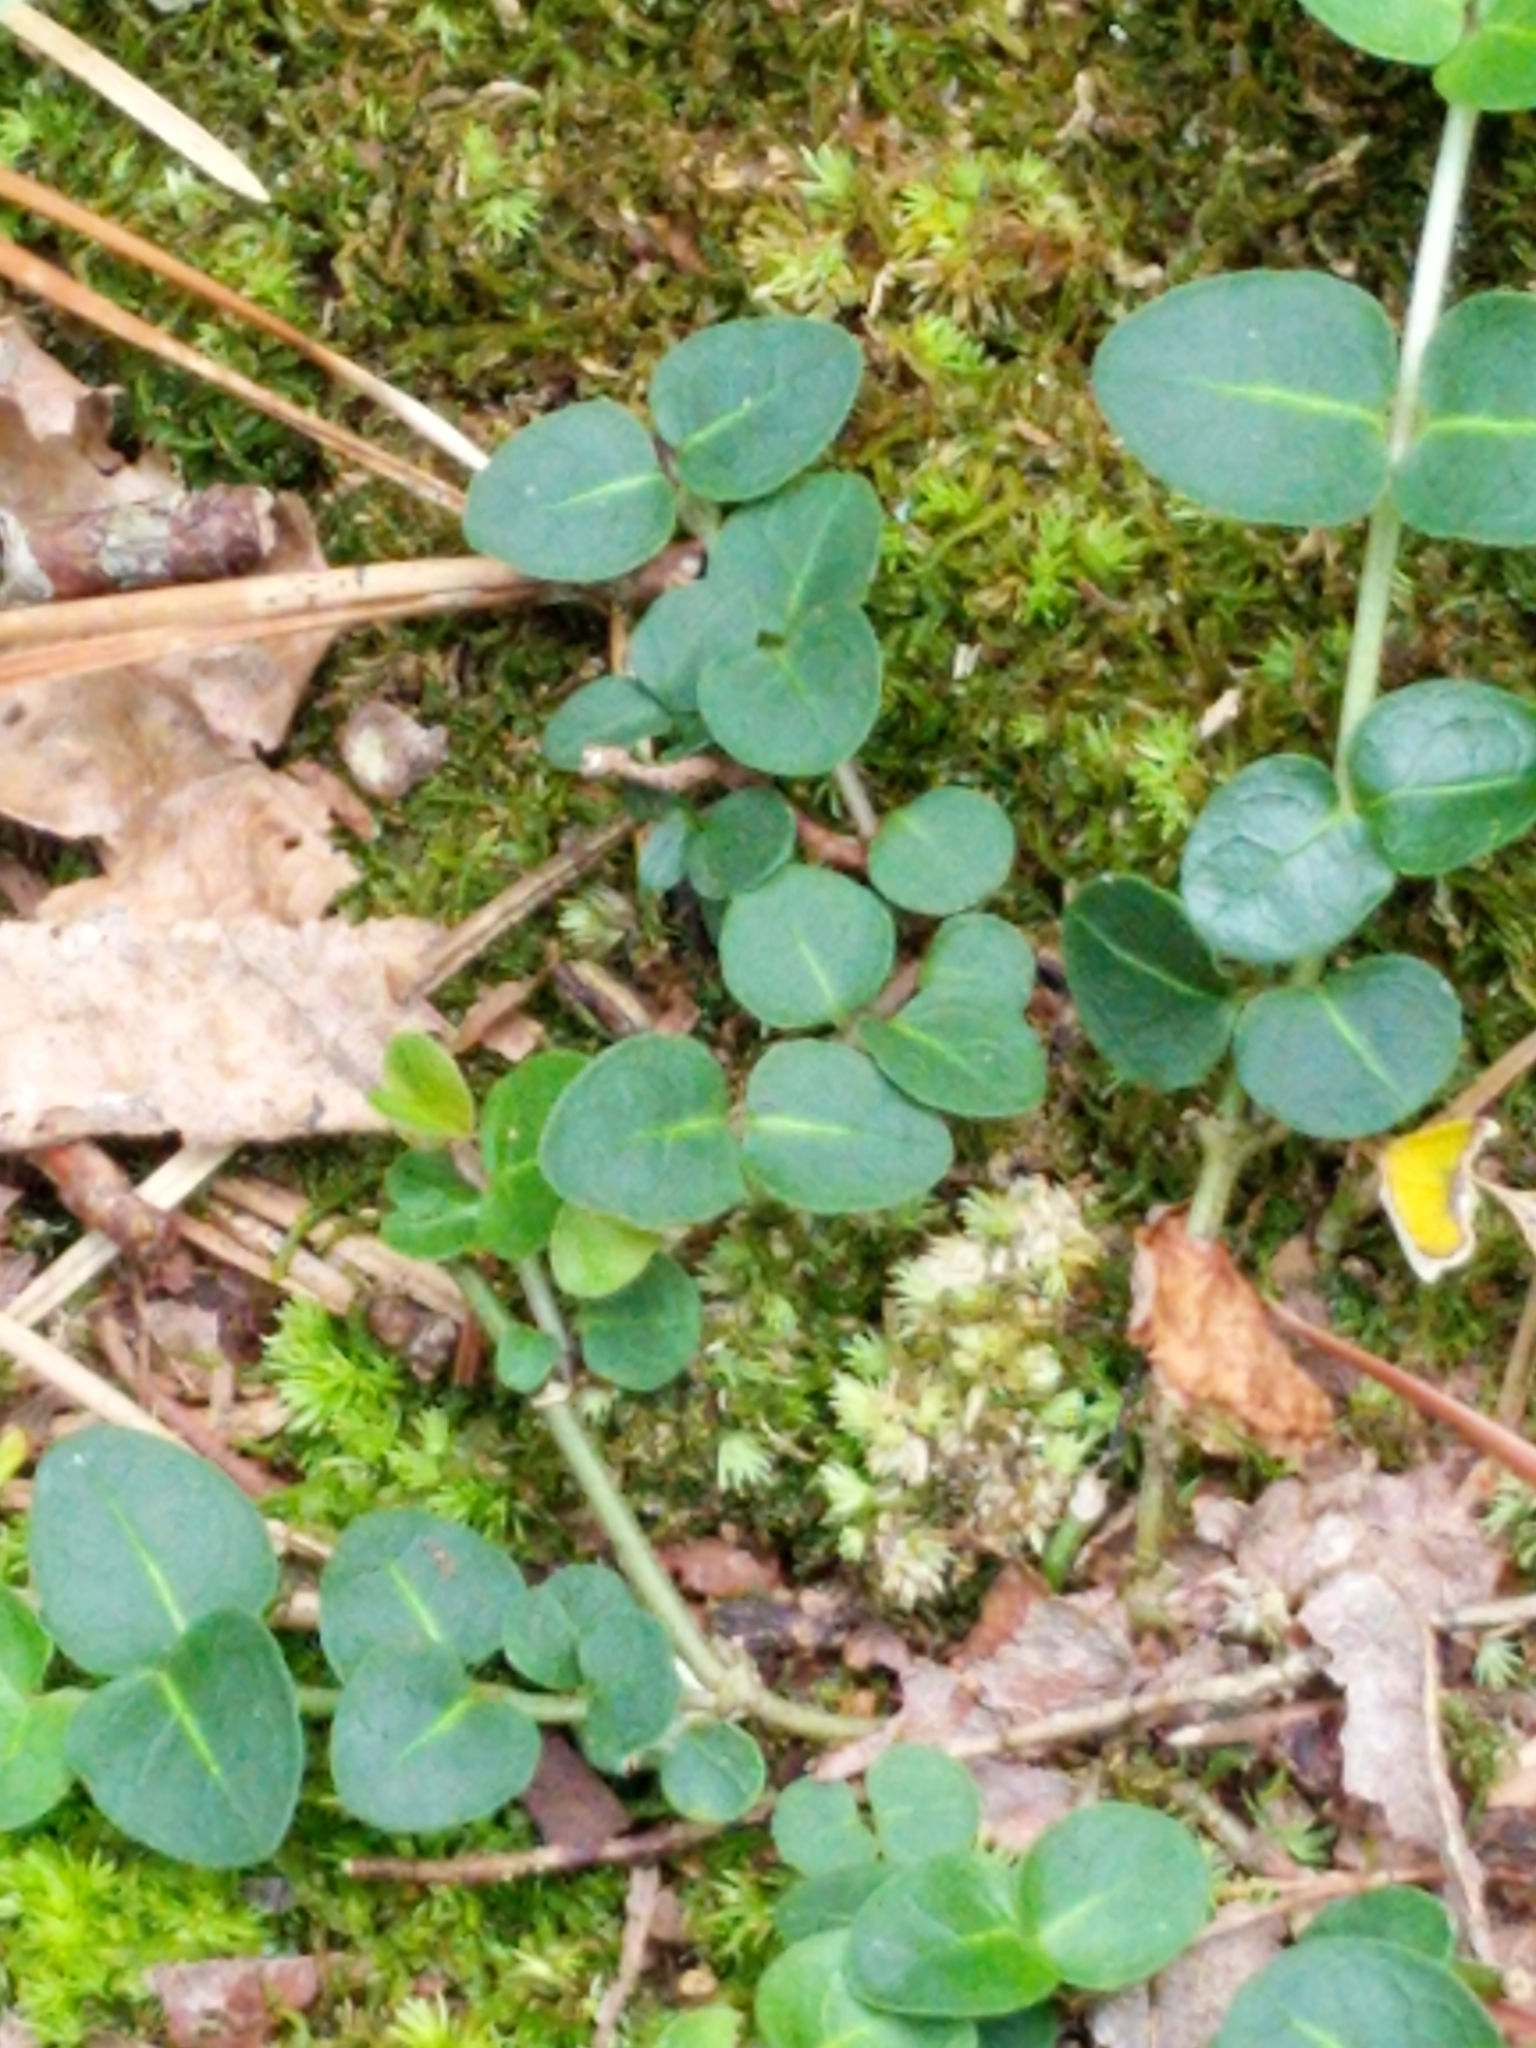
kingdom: Plantae
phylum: Tracheophyta
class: Magnoliopsida
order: Gentianales
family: Rubiaceae
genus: Mitchella
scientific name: Mitchella repens
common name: Partridge-berry
